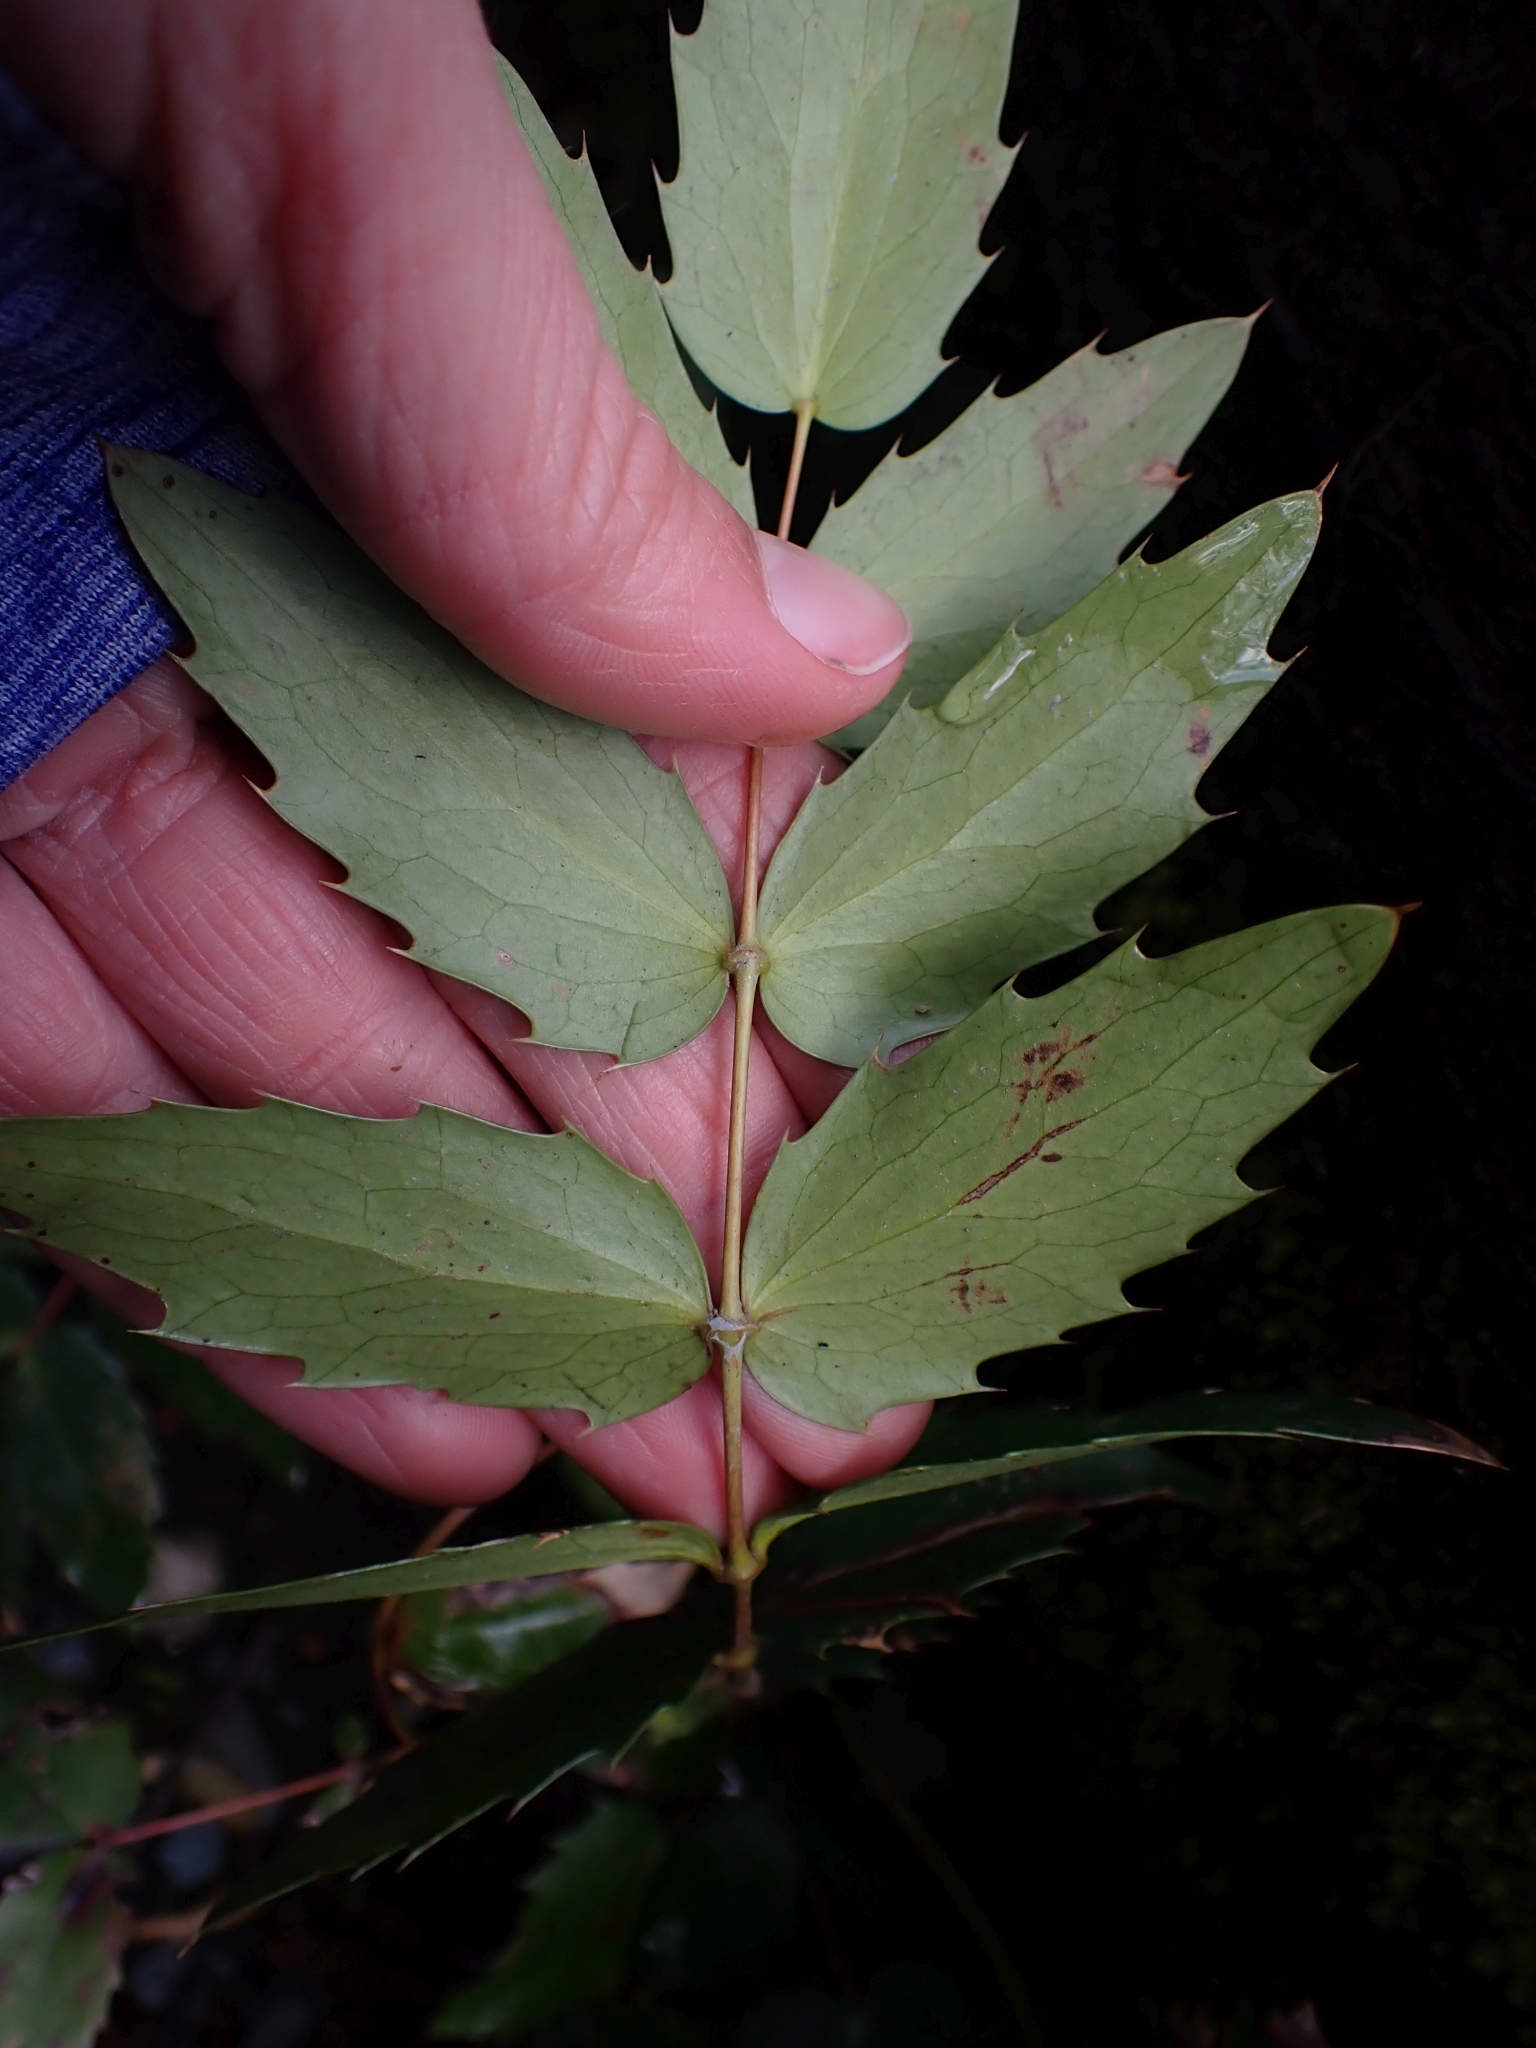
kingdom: Plantae
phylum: Tracheophyta
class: Magnoliopsida
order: Ranunculales
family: Berberidaceae
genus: Mahonia
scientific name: Mahonia nervosa
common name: Cascade oregon-grape
